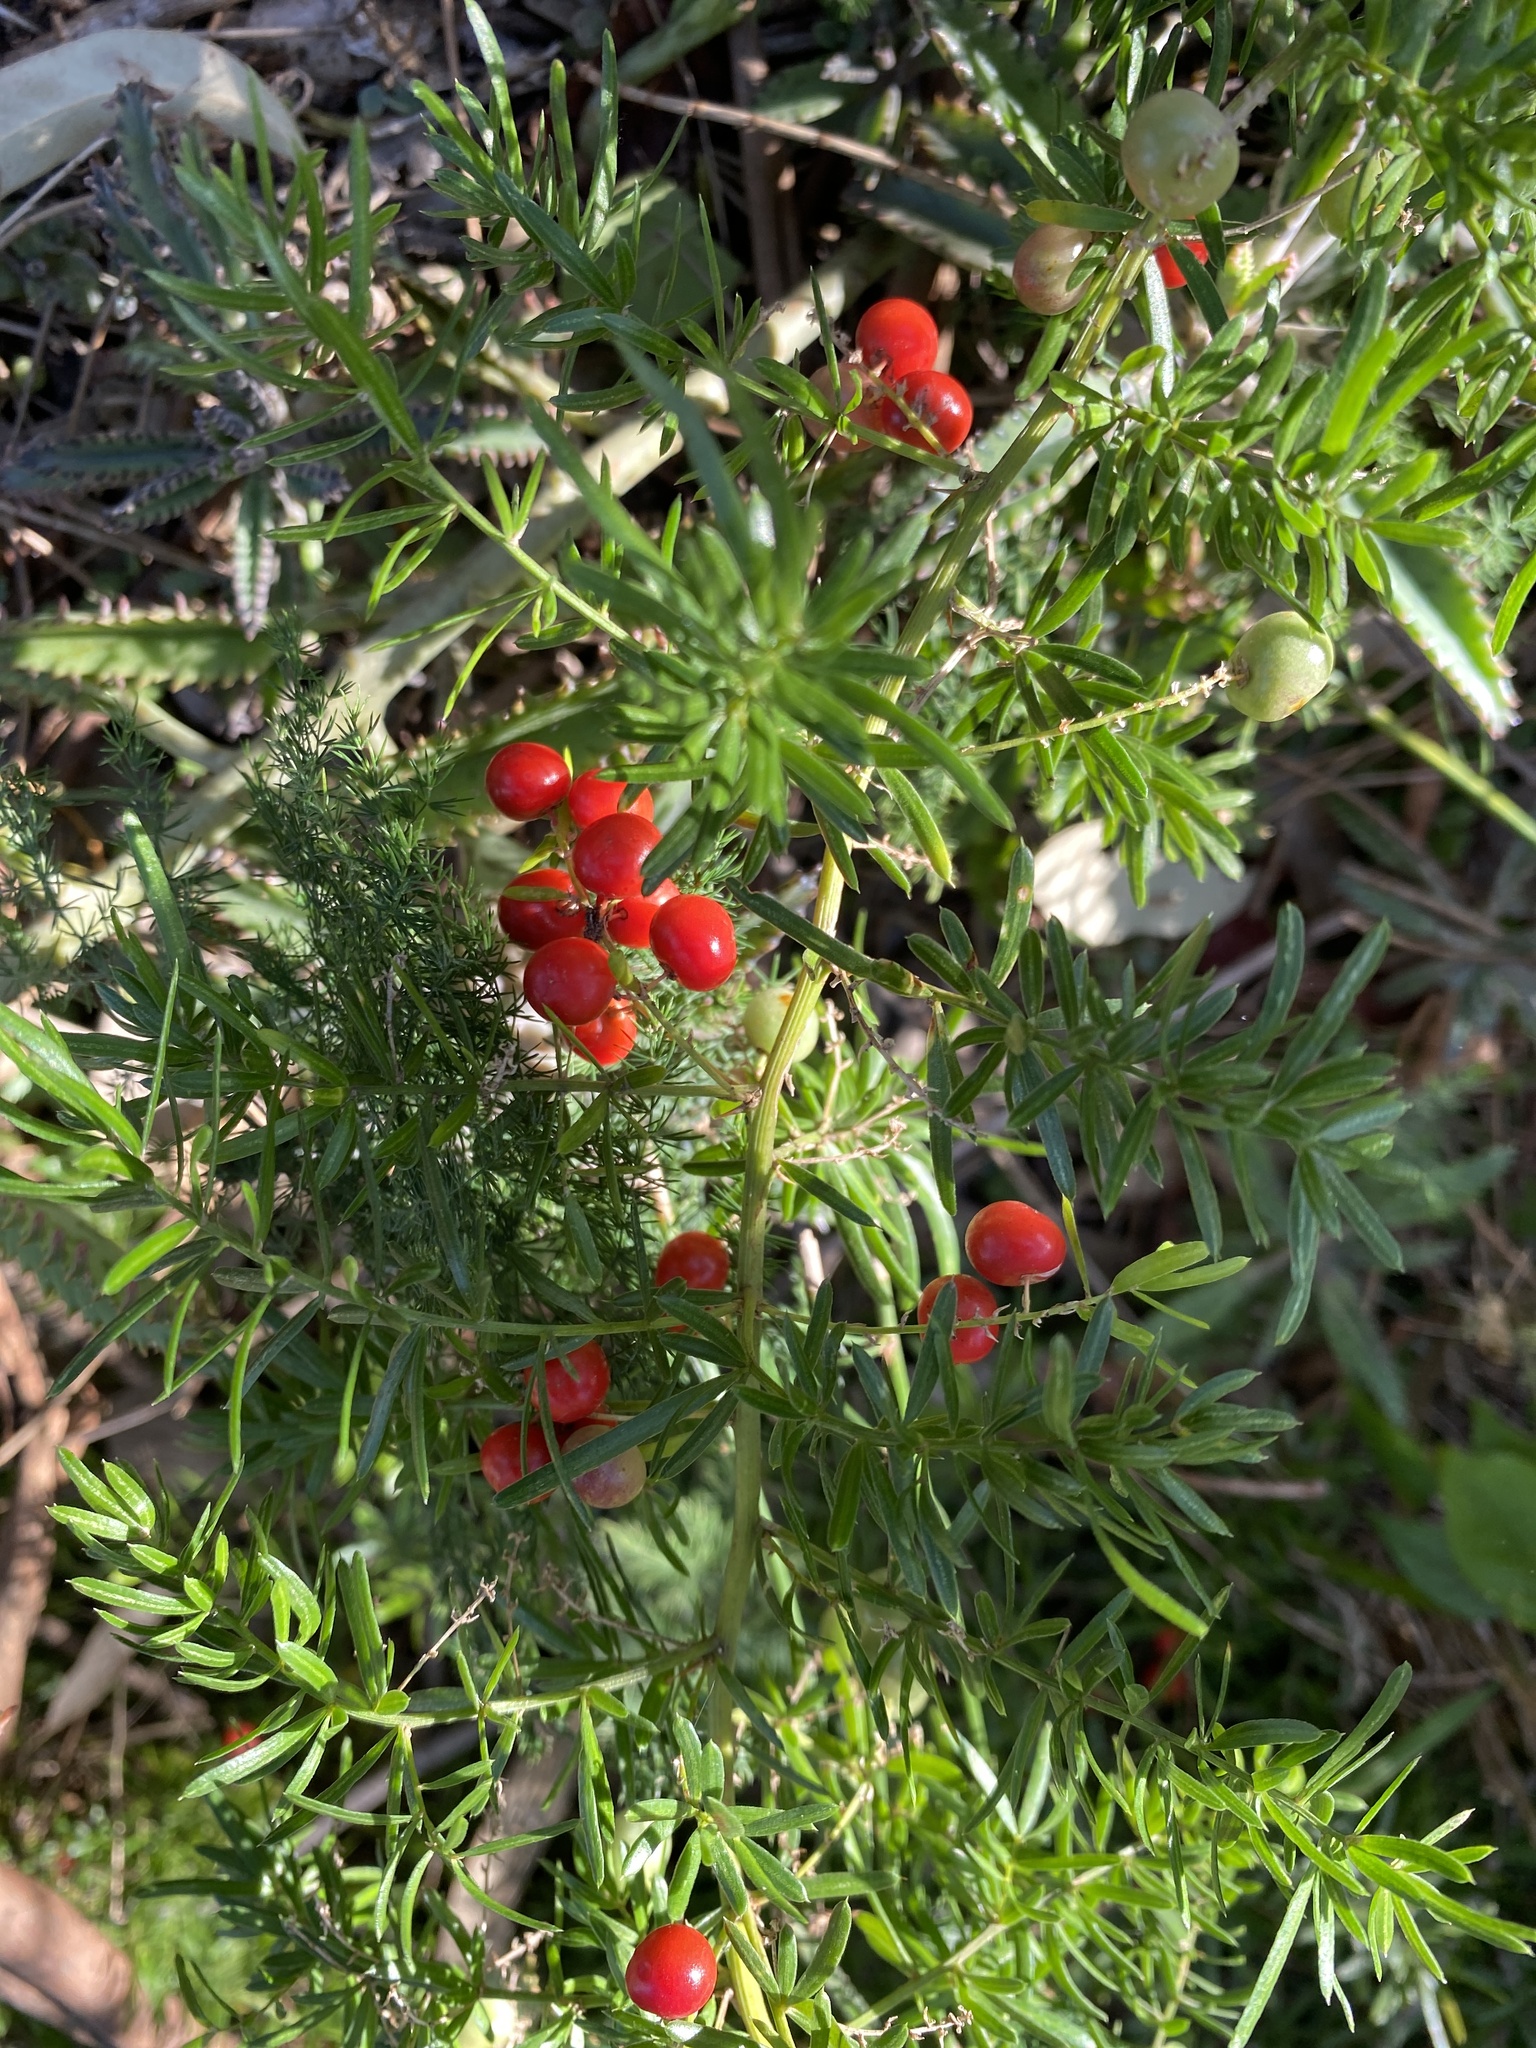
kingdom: Plantae
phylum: Tracheophyta
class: Liliopsida
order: Asparagales
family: Asparagaceae
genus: Asparagus
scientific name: Asparagus aethiopicus
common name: Sprenger's asparagus fern
